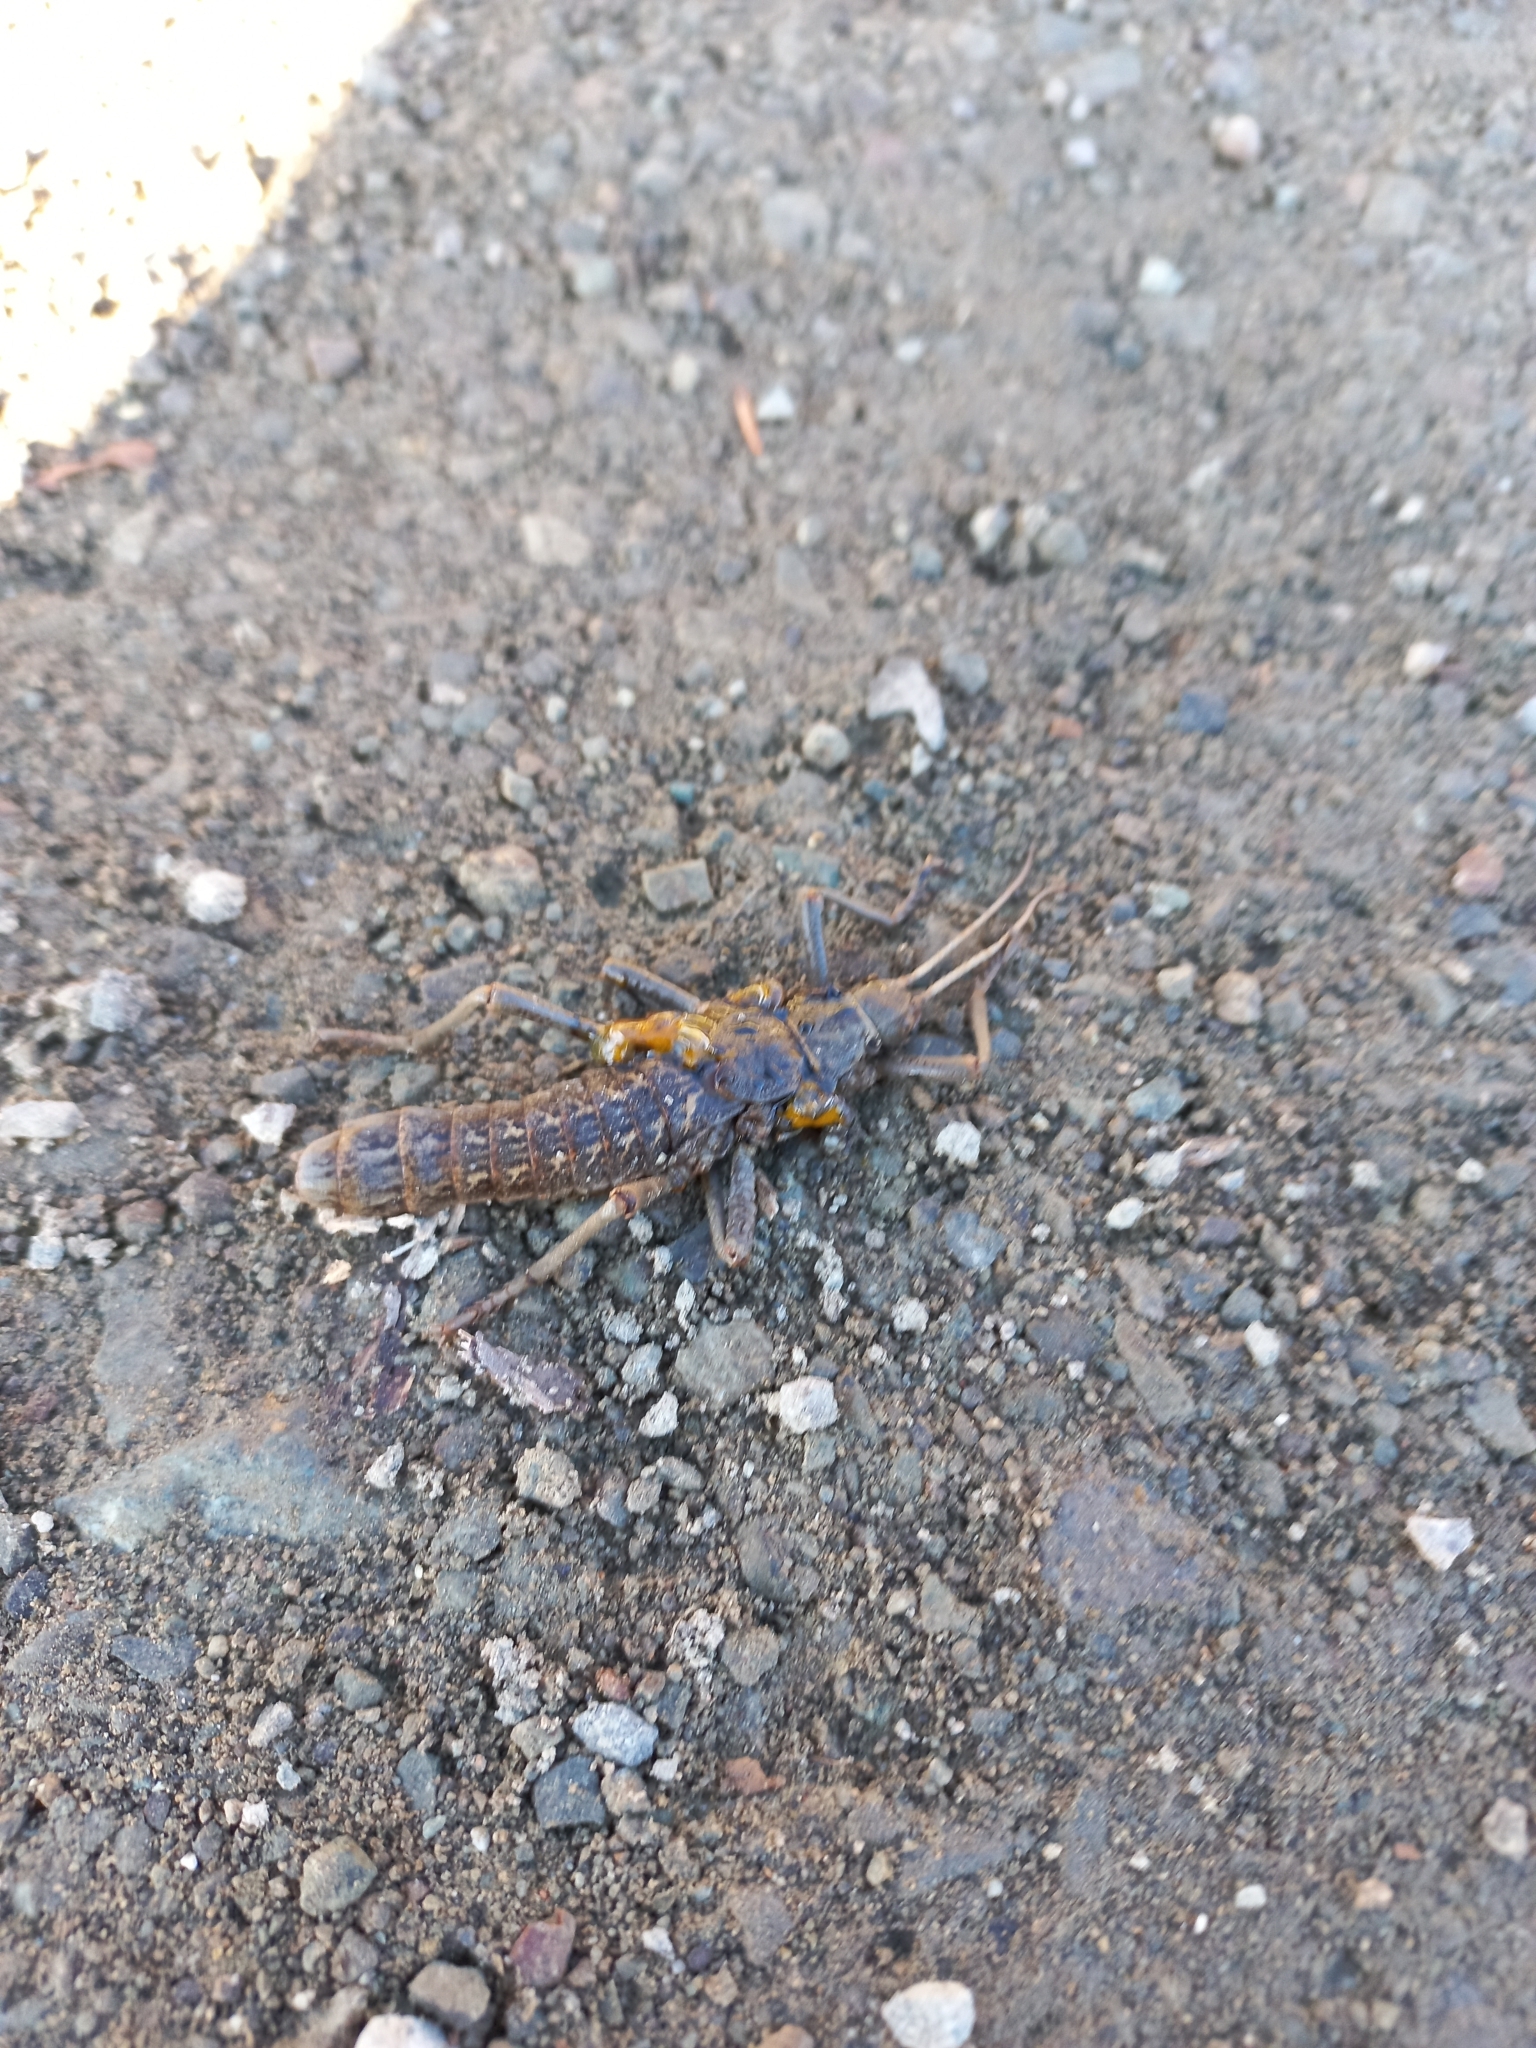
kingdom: Animalia
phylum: Arthropoda
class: Insecta
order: Phasmida
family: Agathemeridae
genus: Agathemera
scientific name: Agathemera claraziana
